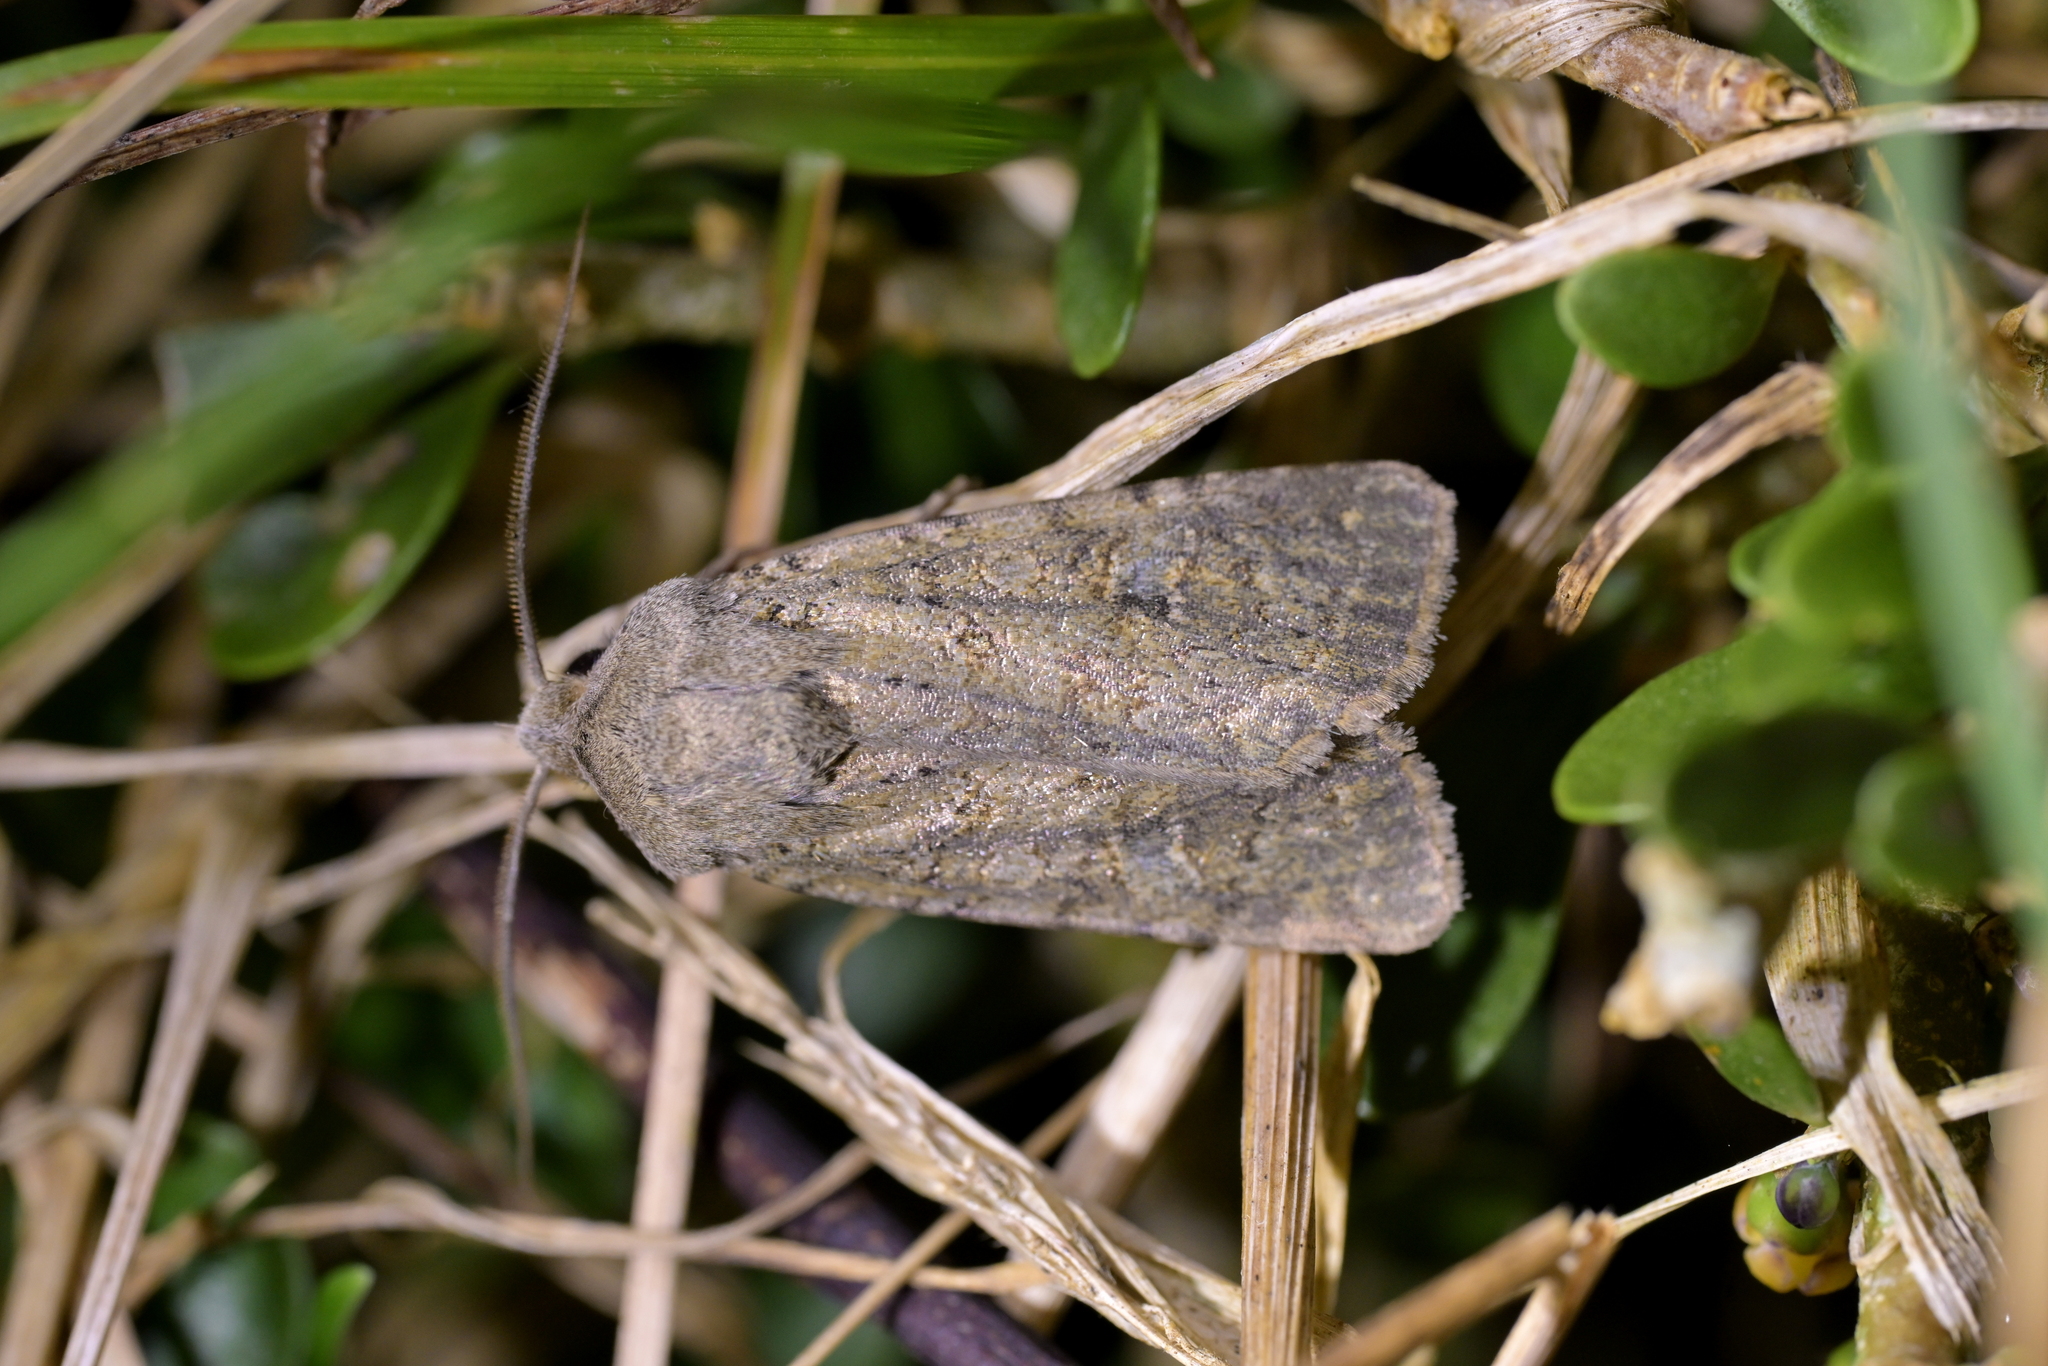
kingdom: Animalia
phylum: Arthropoda
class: Insecta
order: Lepidoptera
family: Noctuidae
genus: Physetica
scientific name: Physetica
